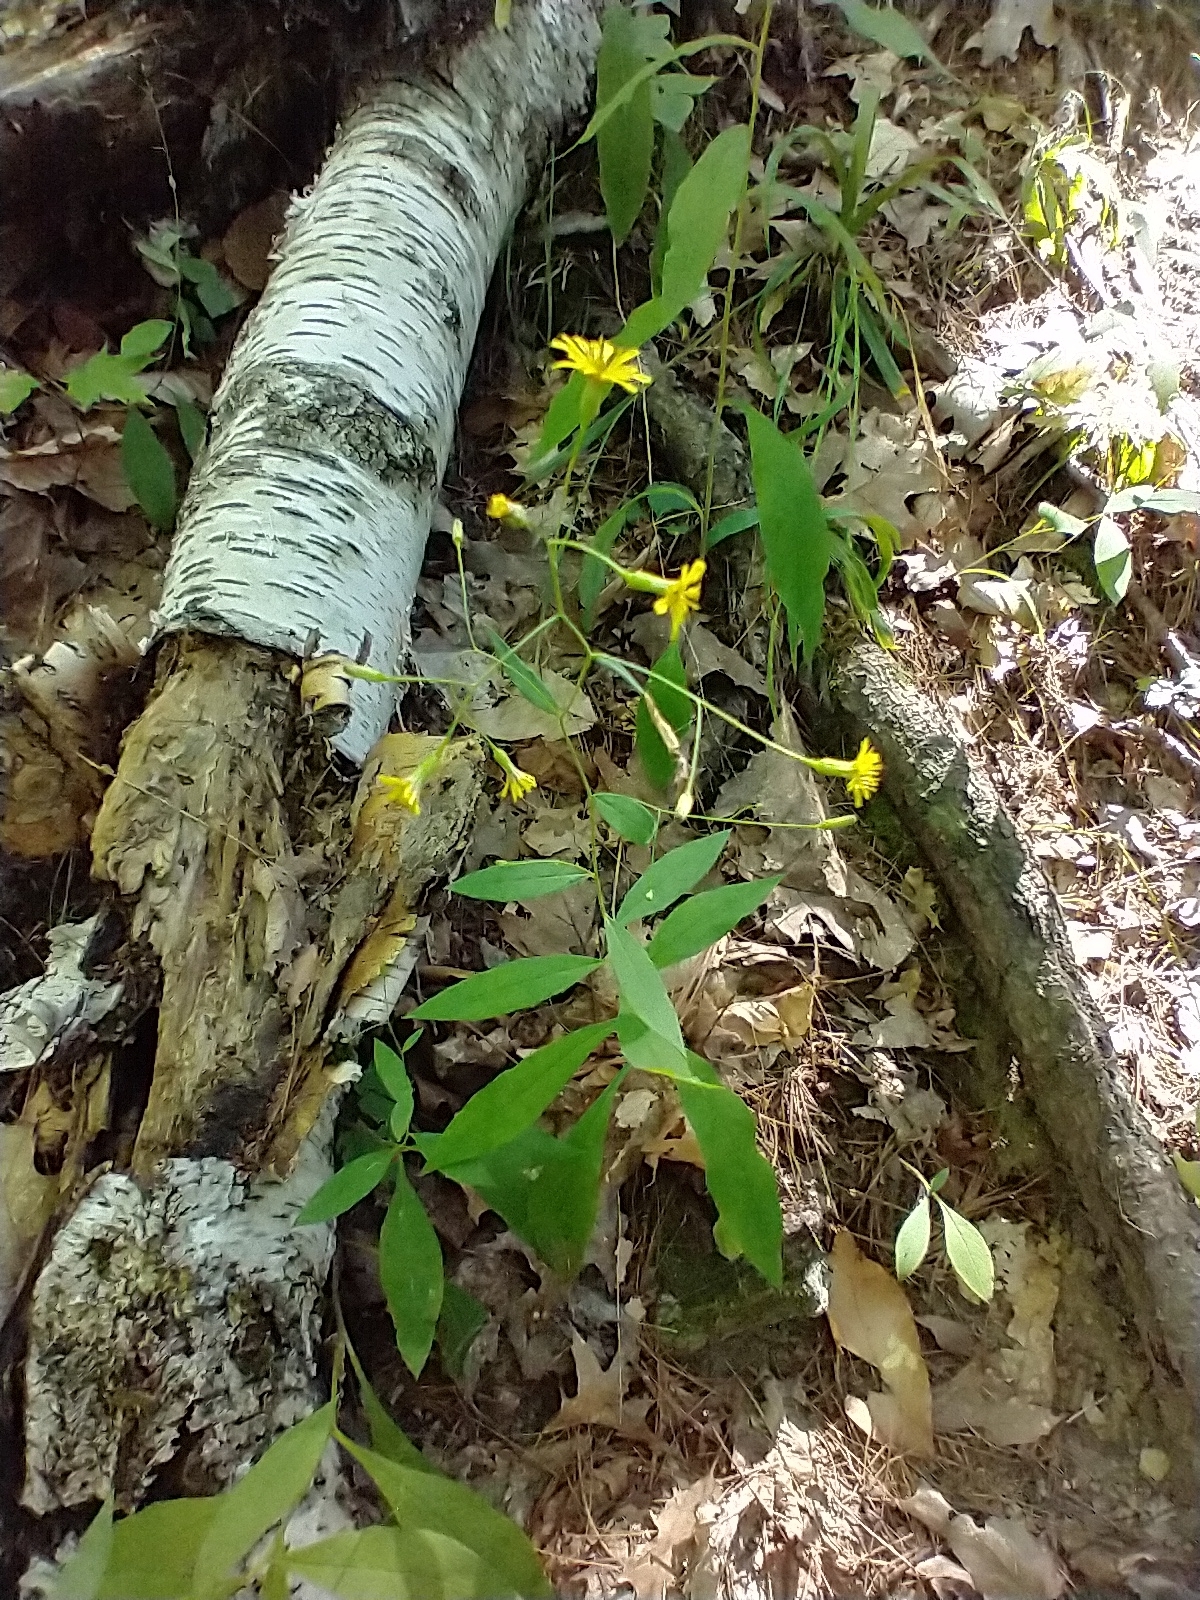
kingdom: Plantae
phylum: Tracheophyta
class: Magnoliopsida
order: Asterales
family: Asteraceae
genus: Hieracium
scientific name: Hieracium paniculatum
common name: Allegheny hawkweed
